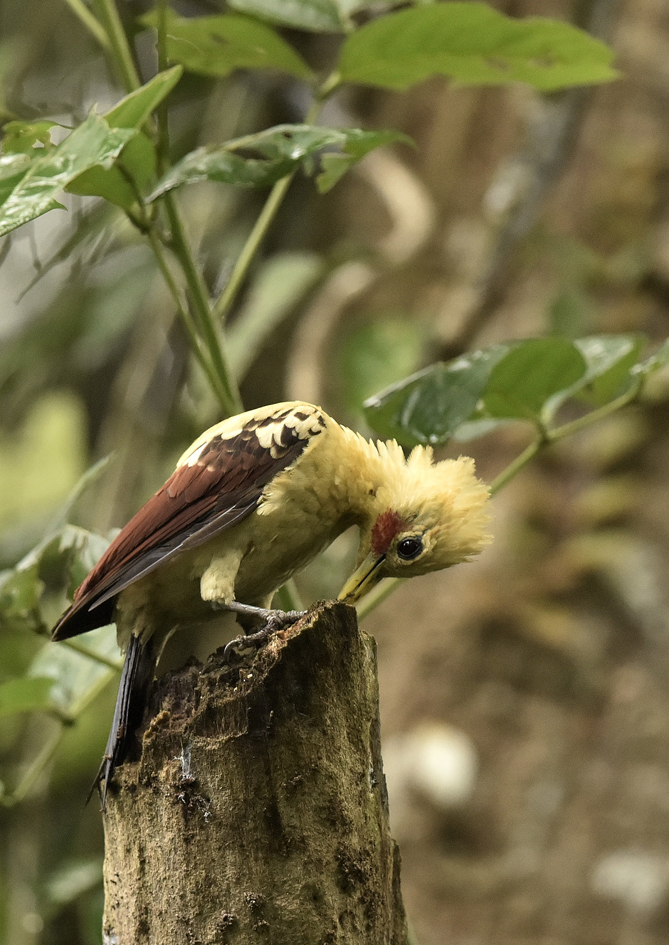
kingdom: Animalia
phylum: Chordata
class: Aves
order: Piciformes
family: Picidae
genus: Celeus
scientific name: Celeus flavus
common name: Cream-colored woodpecker
